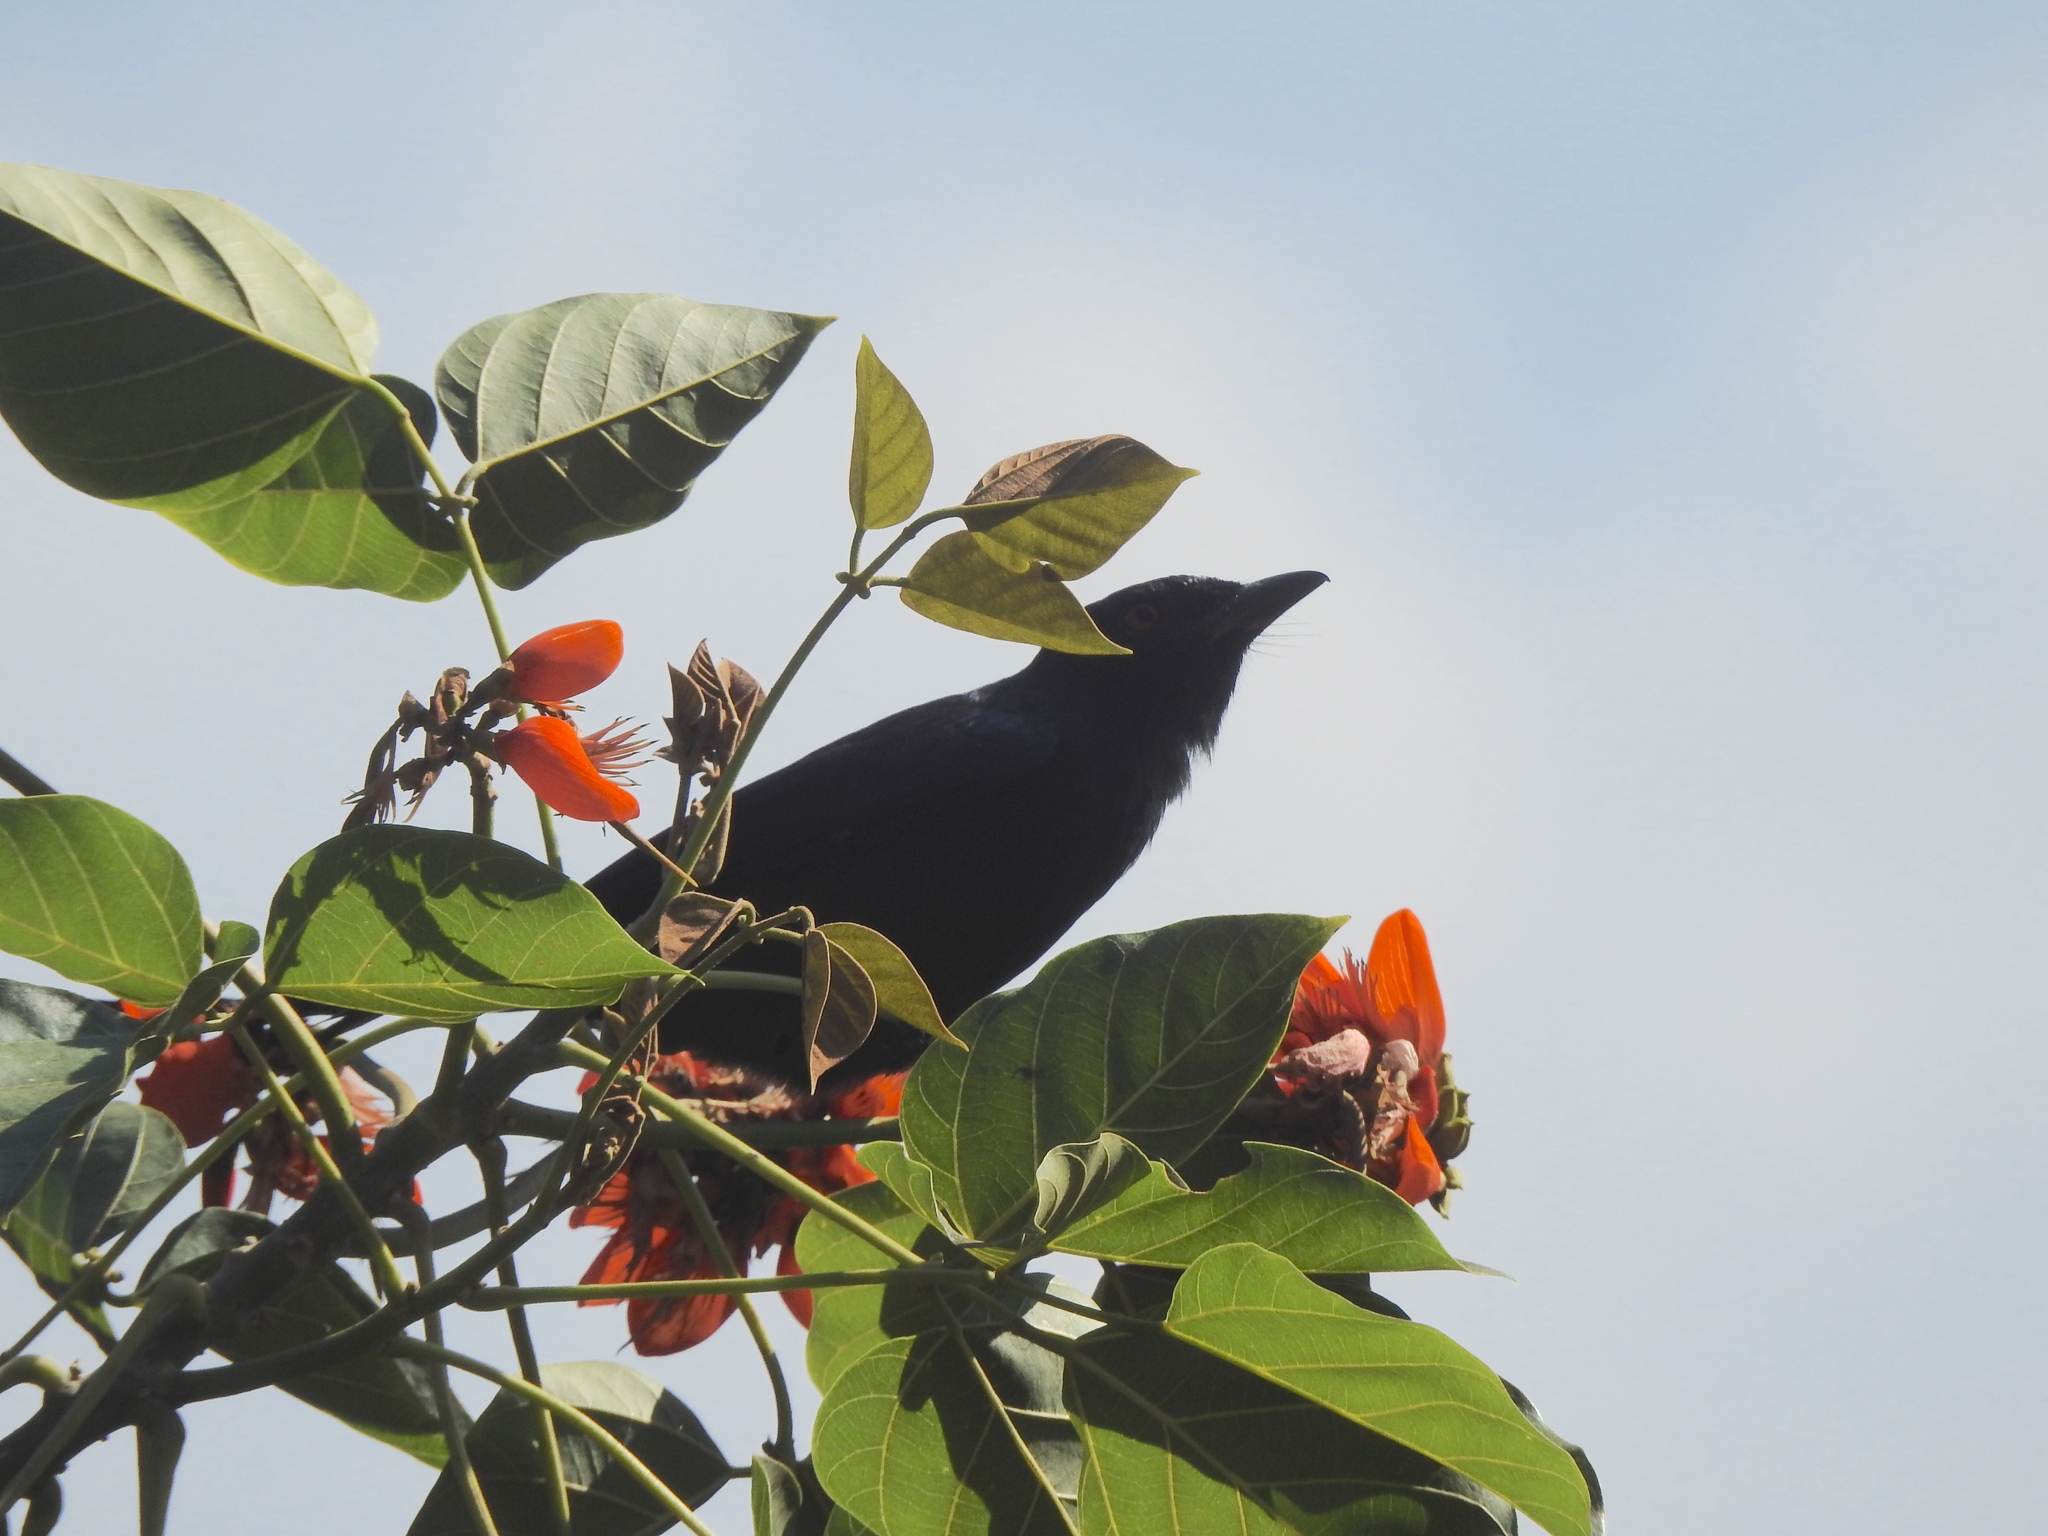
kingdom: Animalia
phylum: Chordata
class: Aves
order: Passeriformes
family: Dicruridae
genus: Dicrurus
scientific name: Dicrurus leucophaeus
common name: Ashy drongo
